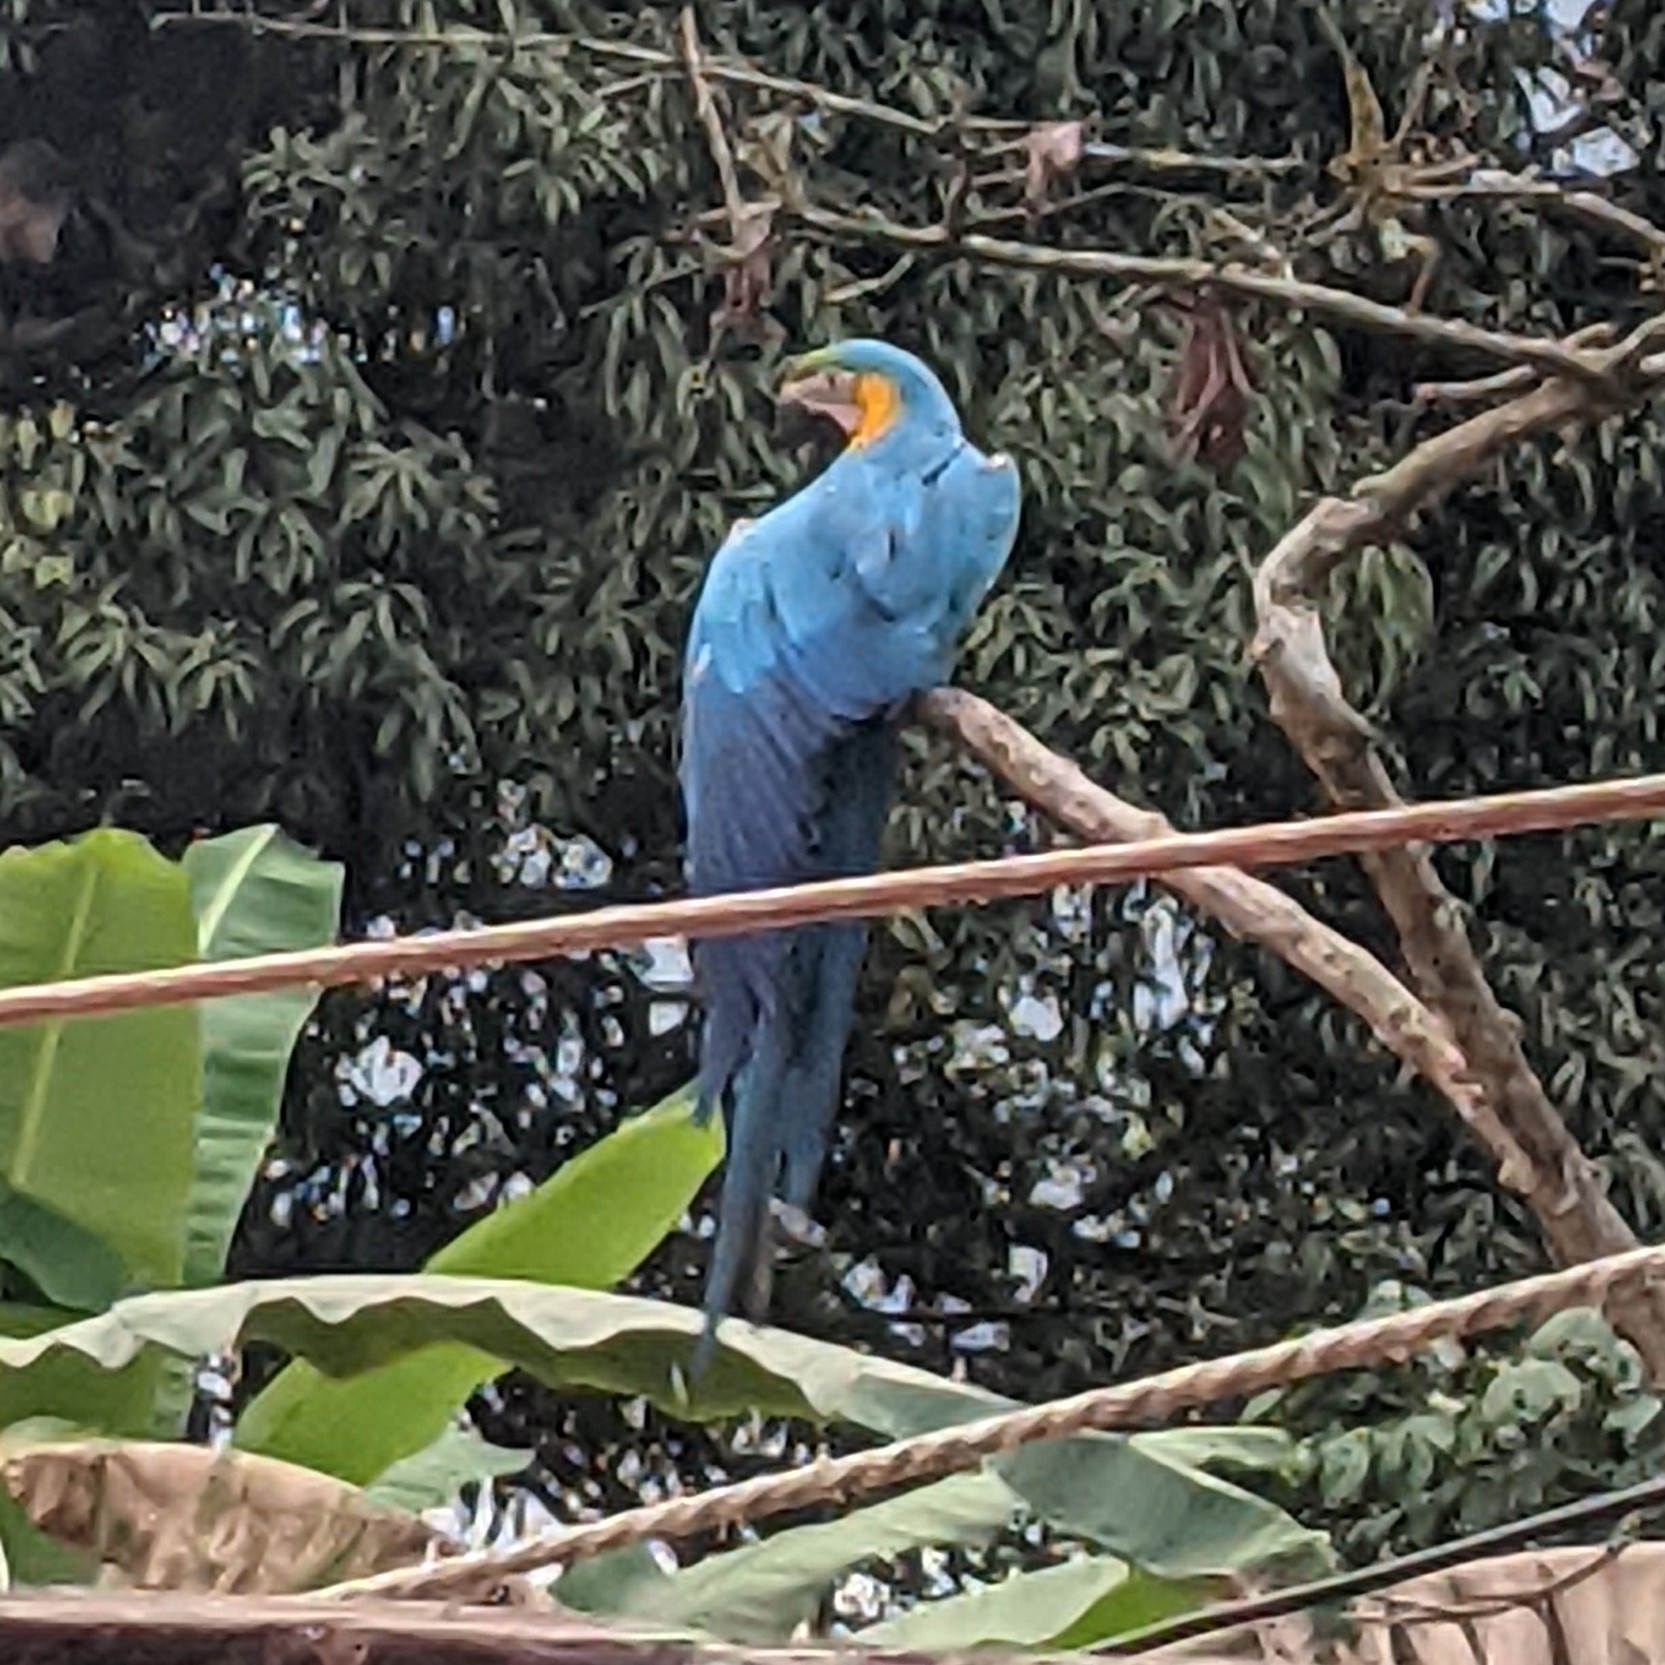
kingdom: Animalia
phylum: Chordata
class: Aves
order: Psittaciformes
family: Psittacidae
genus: Ara
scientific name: Ara ararauna
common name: Blue-and-yellow macaw
